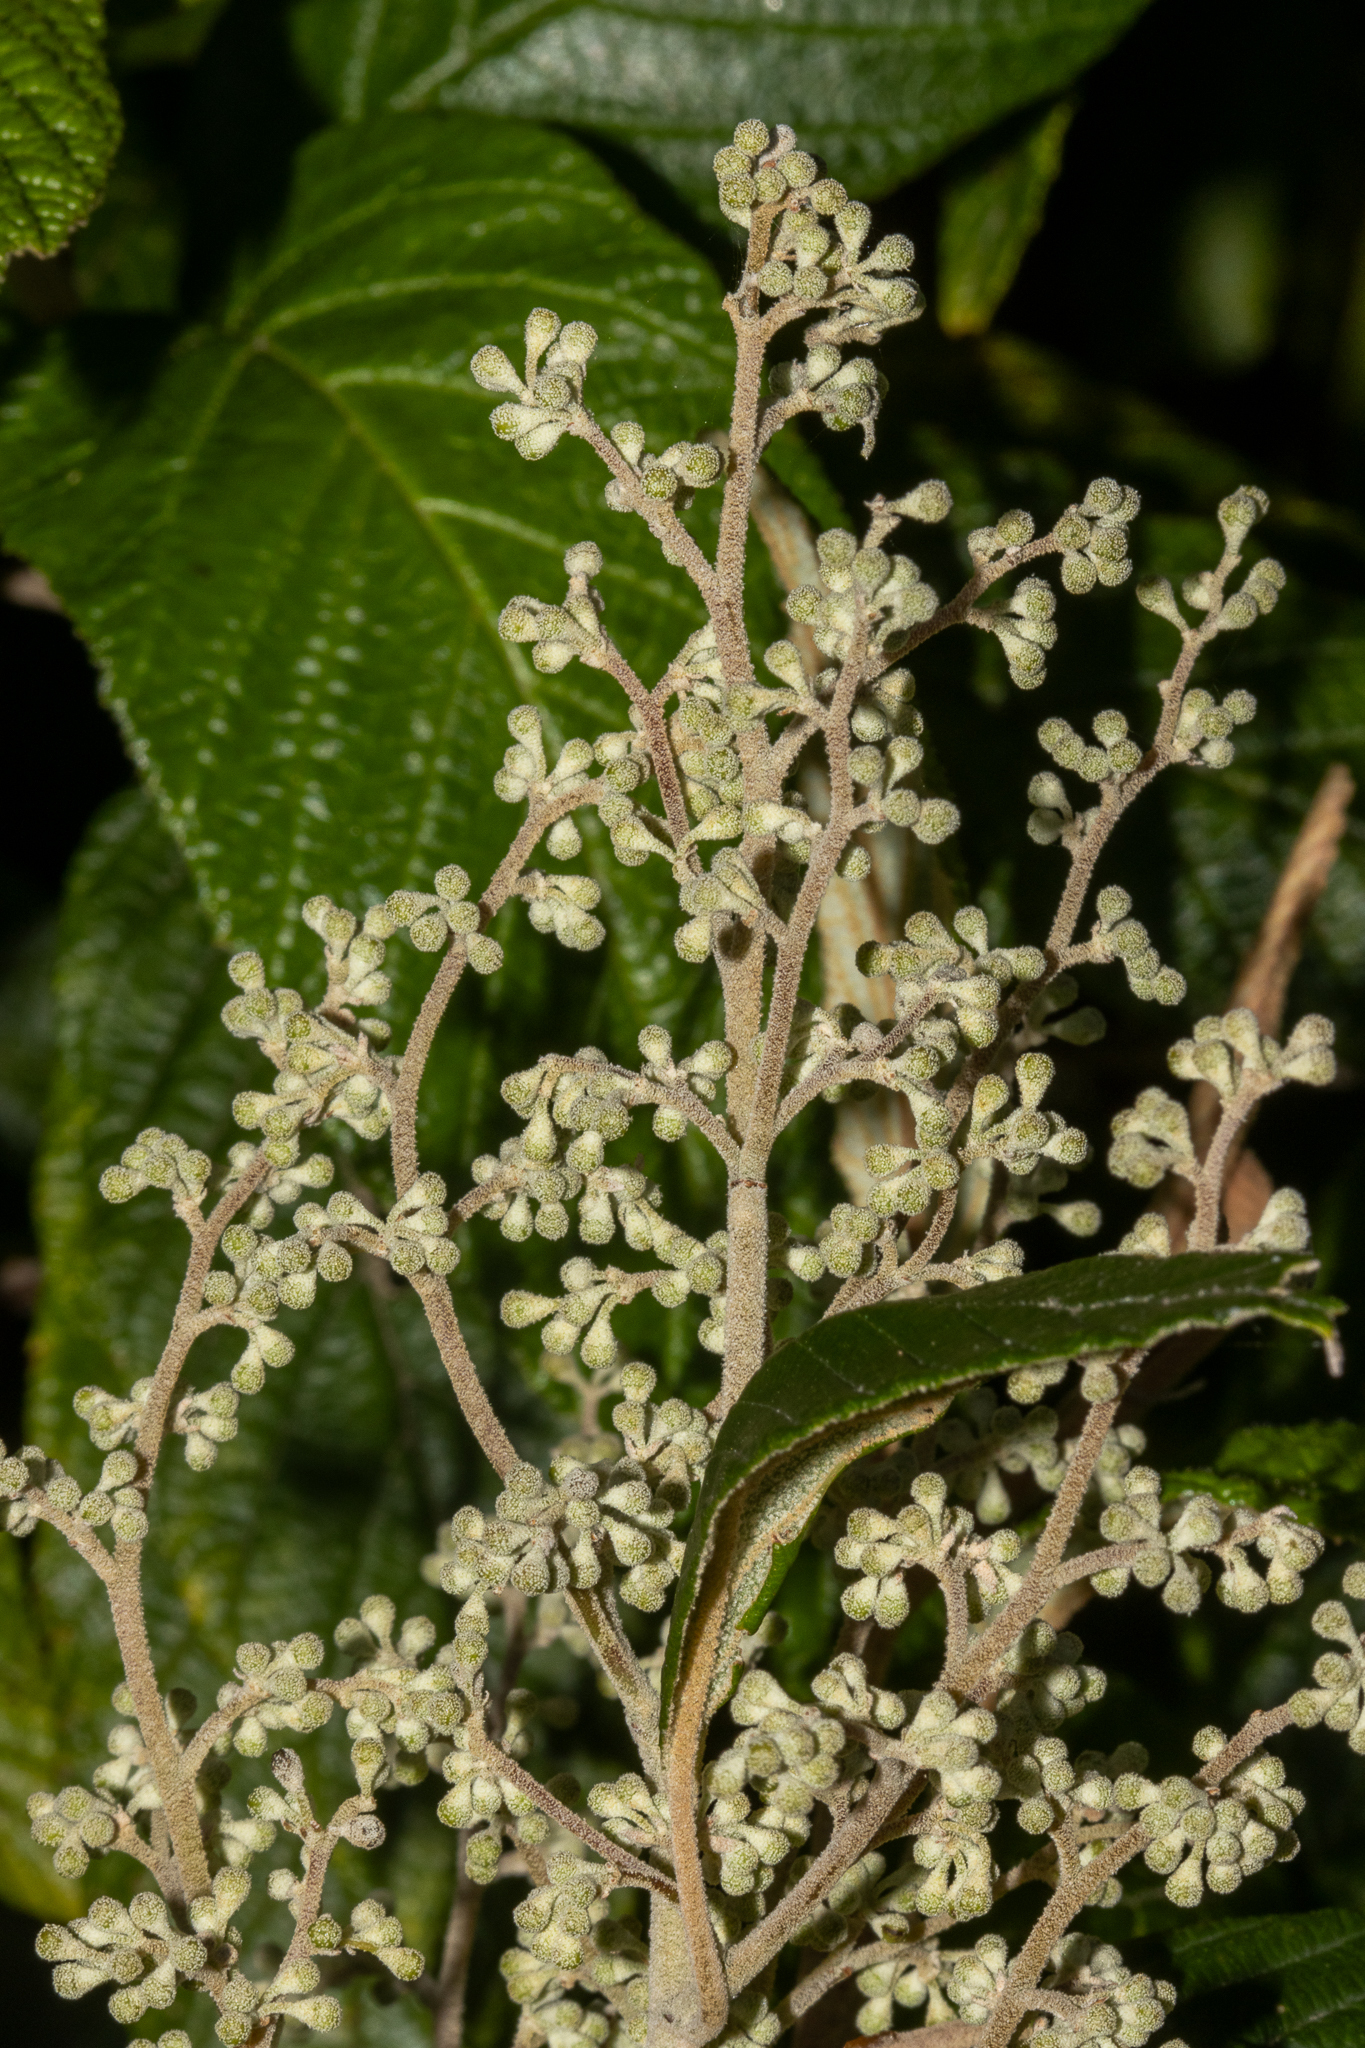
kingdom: Plantae
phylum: Tracheophyta
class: Magnoliopsida
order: Rosales
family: Rhamnaceae
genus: Pomaderris
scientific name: Pomaderris aspera
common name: Hazel pomaderris
